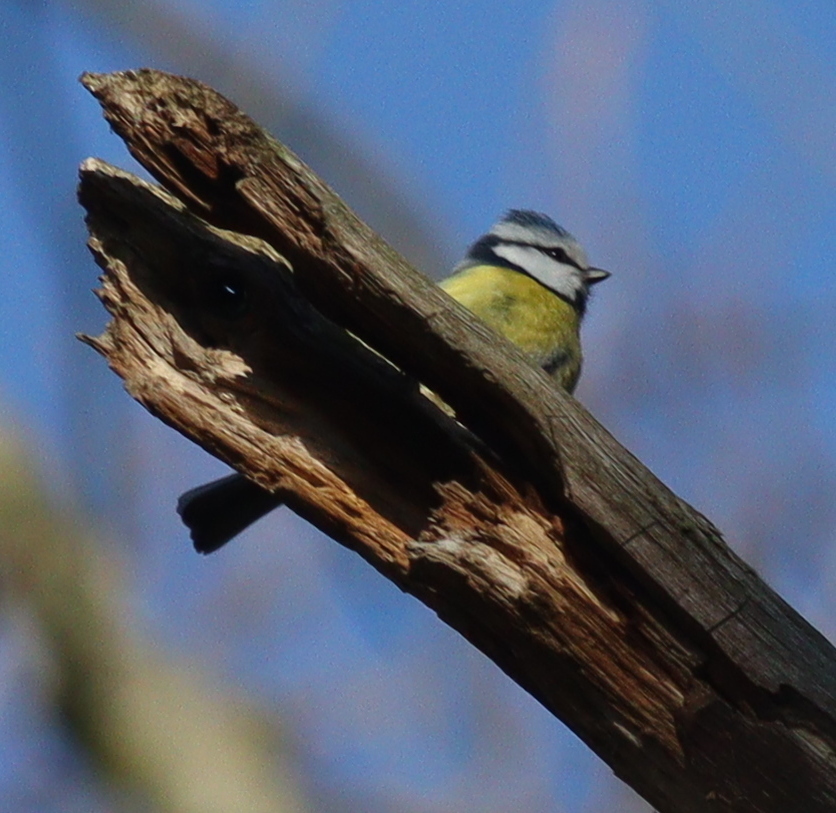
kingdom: Animalia
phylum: Chordata
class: Aves
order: Passeriformes
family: Paridae
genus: Cyanistes
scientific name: Cyanistes caeruleus
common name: Eurasian blue tit
